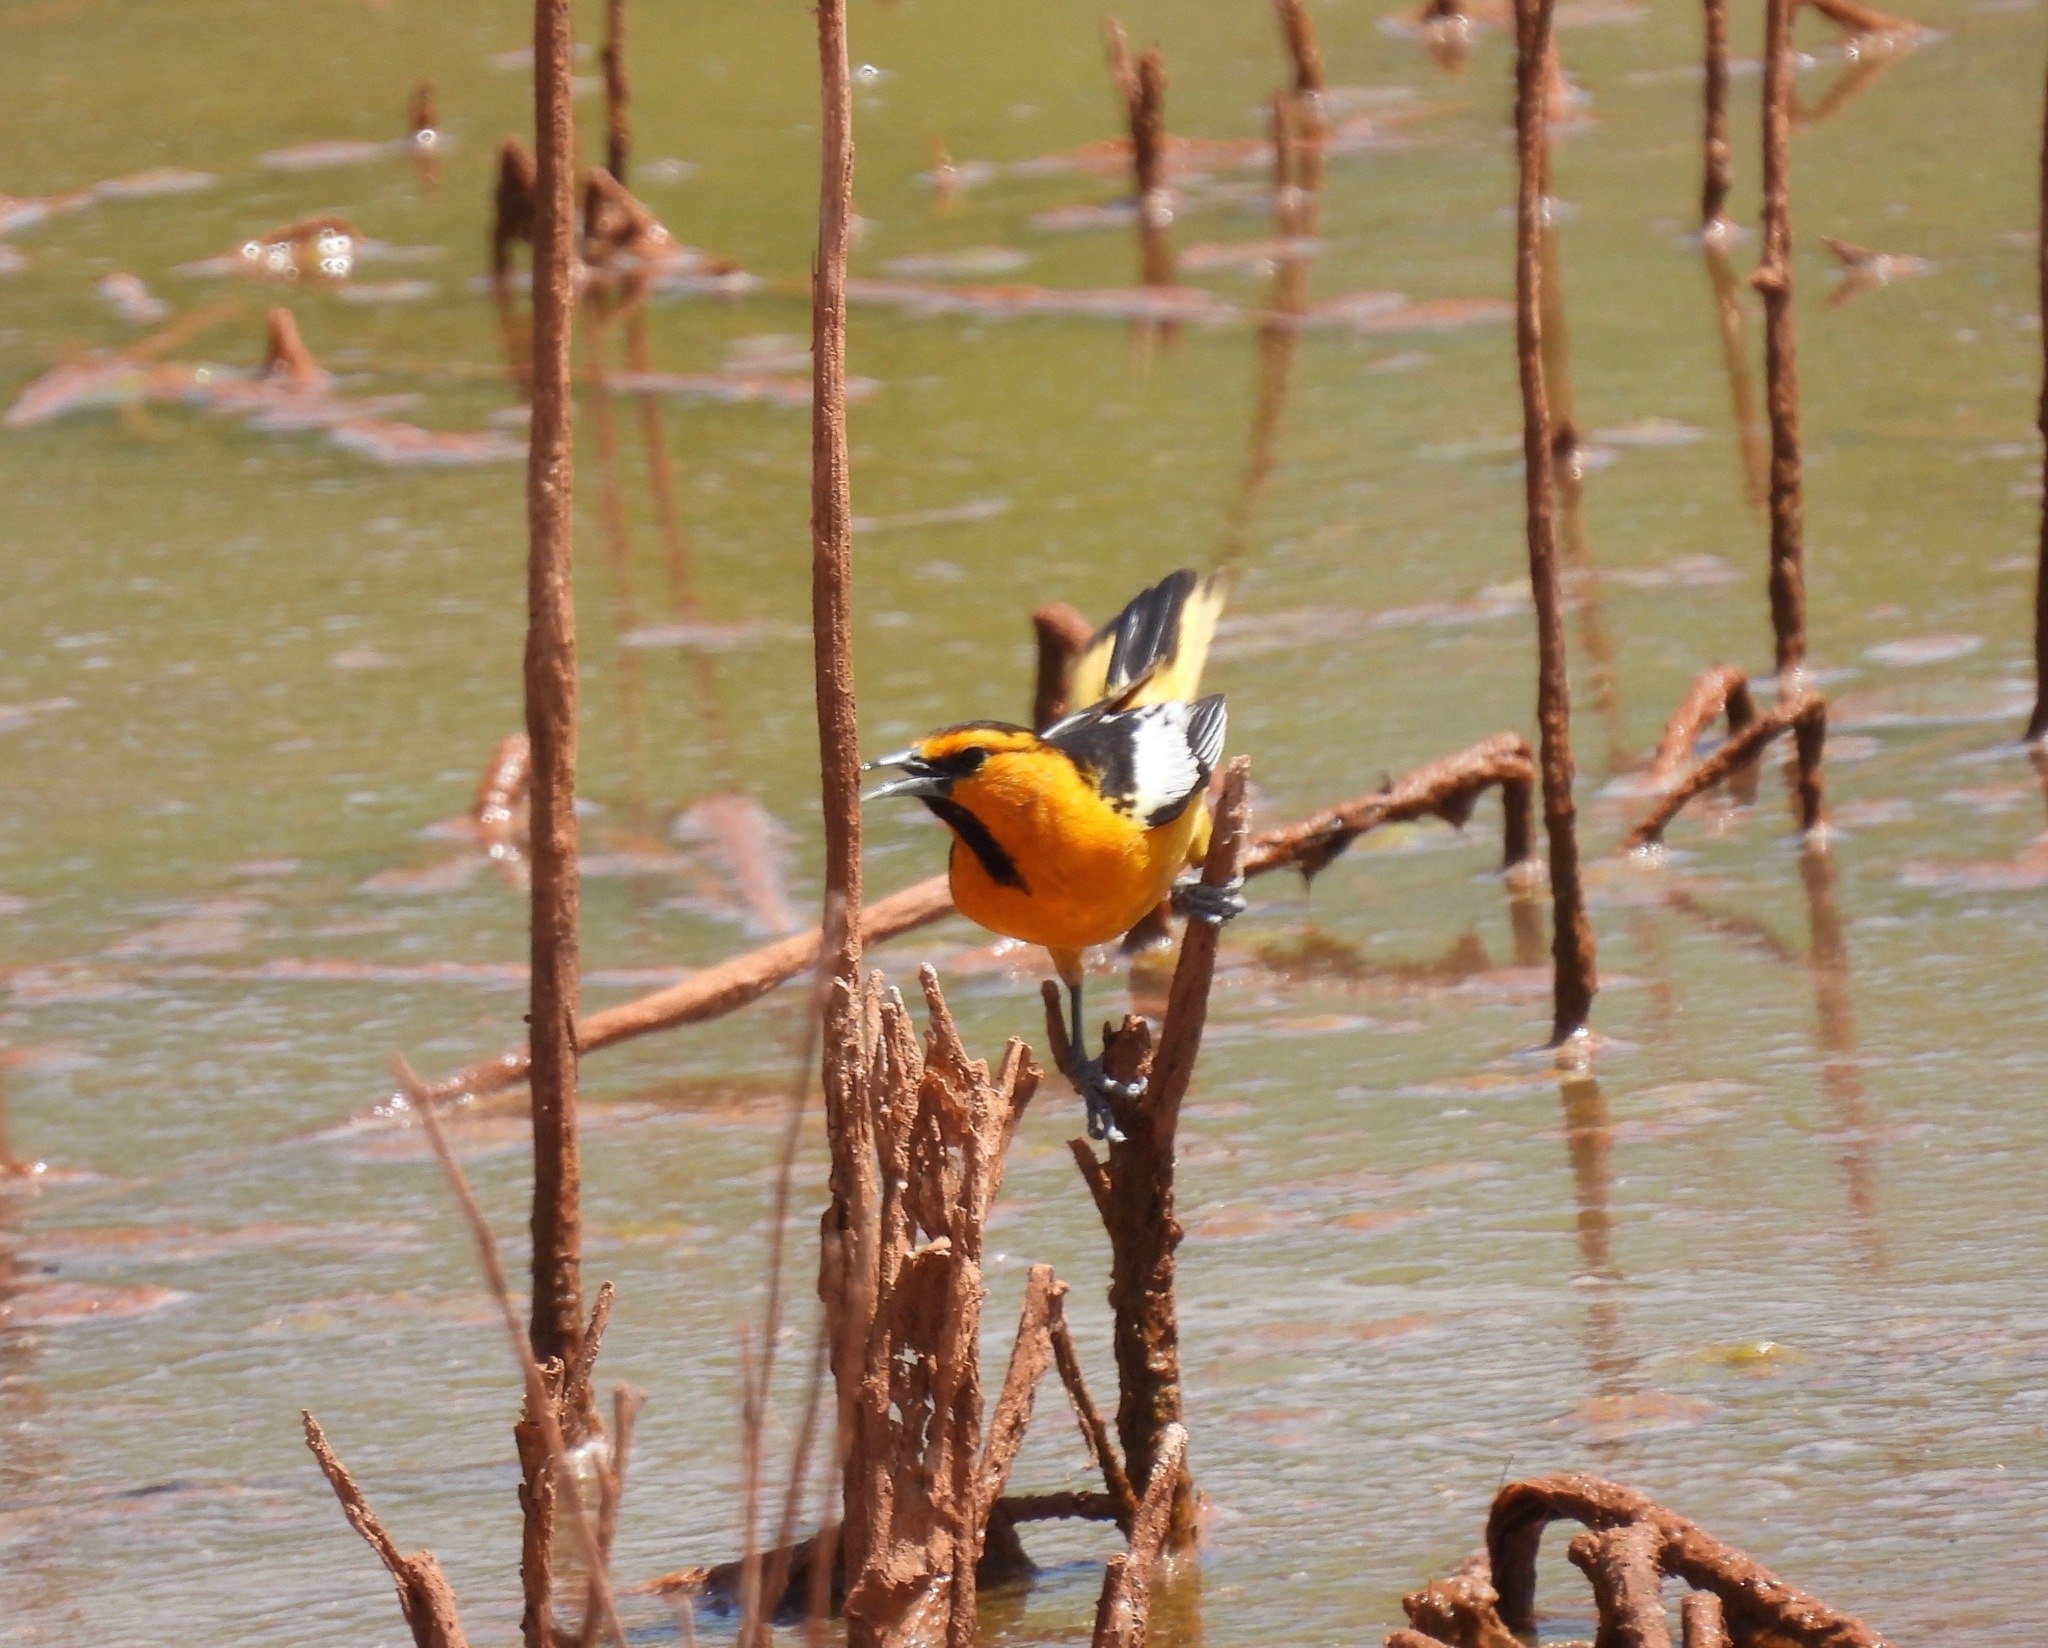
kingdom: Animalia
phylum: Chordata
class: Aves
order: Passeriformes
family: Icteridae
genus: Icterus
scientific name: Icterus bullockii
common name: Bullock's oriole
